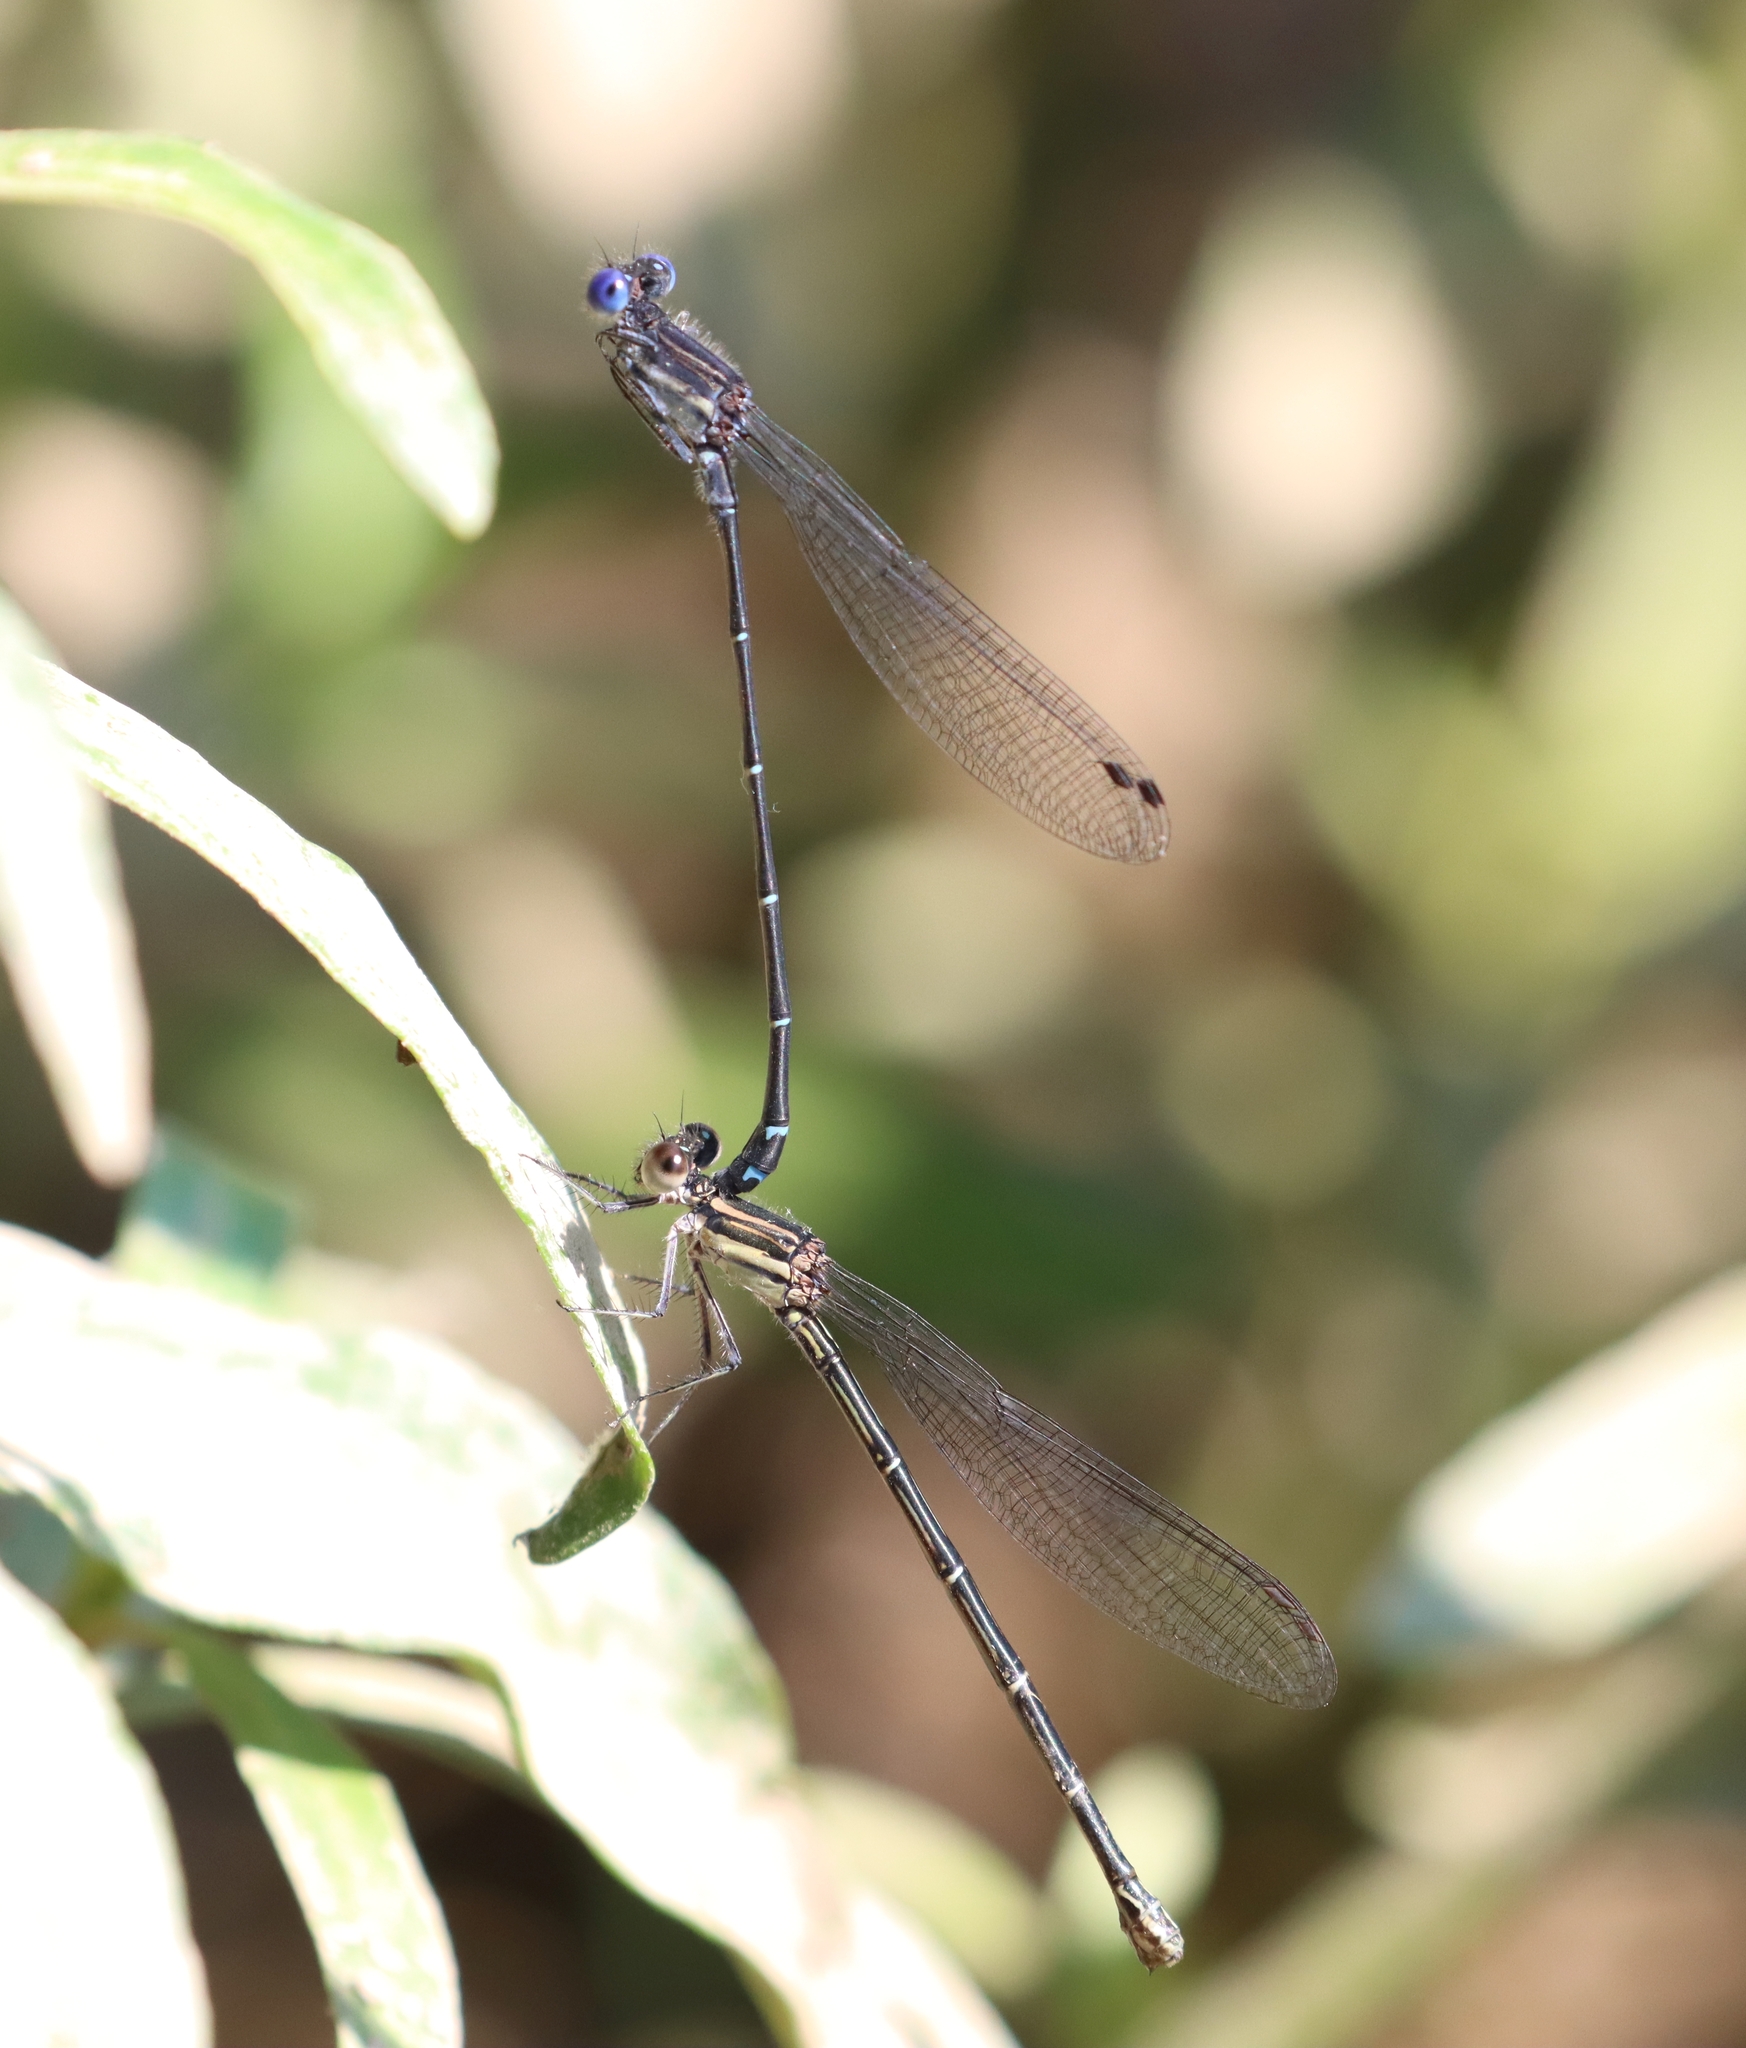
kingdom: Animalia
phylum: Arthropoda
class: Insecta
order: Odonata
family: Coenagrionidae
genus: Argia
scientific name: Argia translata
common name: Dusky dancer
